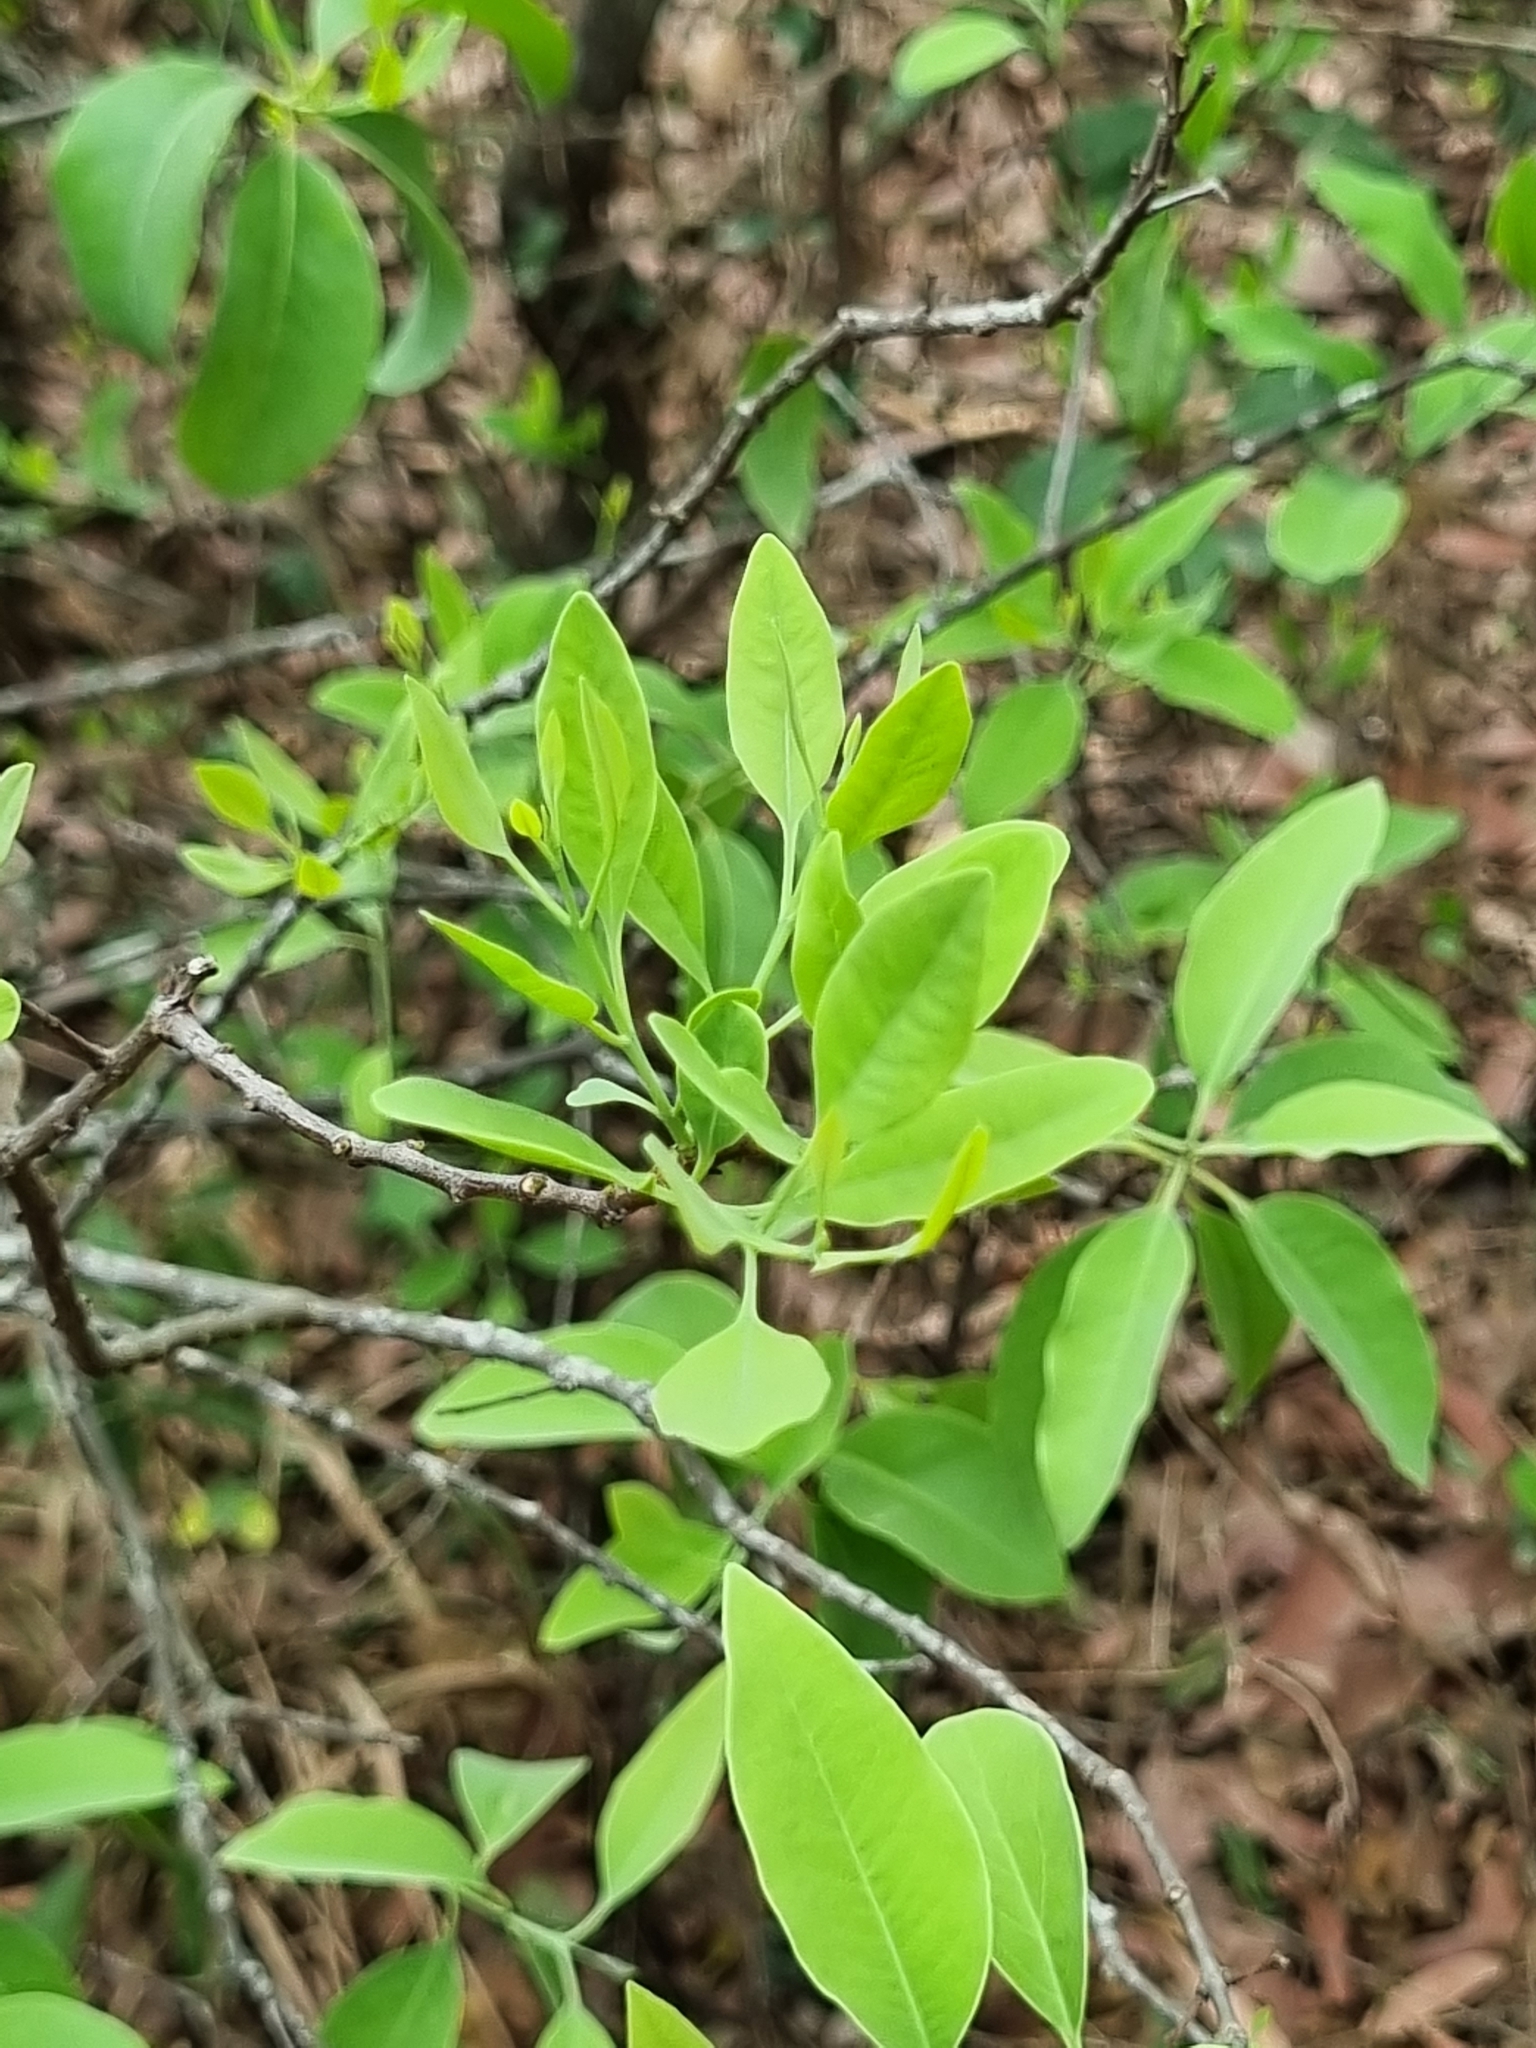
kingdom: Plantae
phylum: Tracheophyta
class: Magnoliopsida
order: Santalales
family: Santalaceae
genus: Santalum
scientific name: Santalum album
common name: Indian sandalwood
